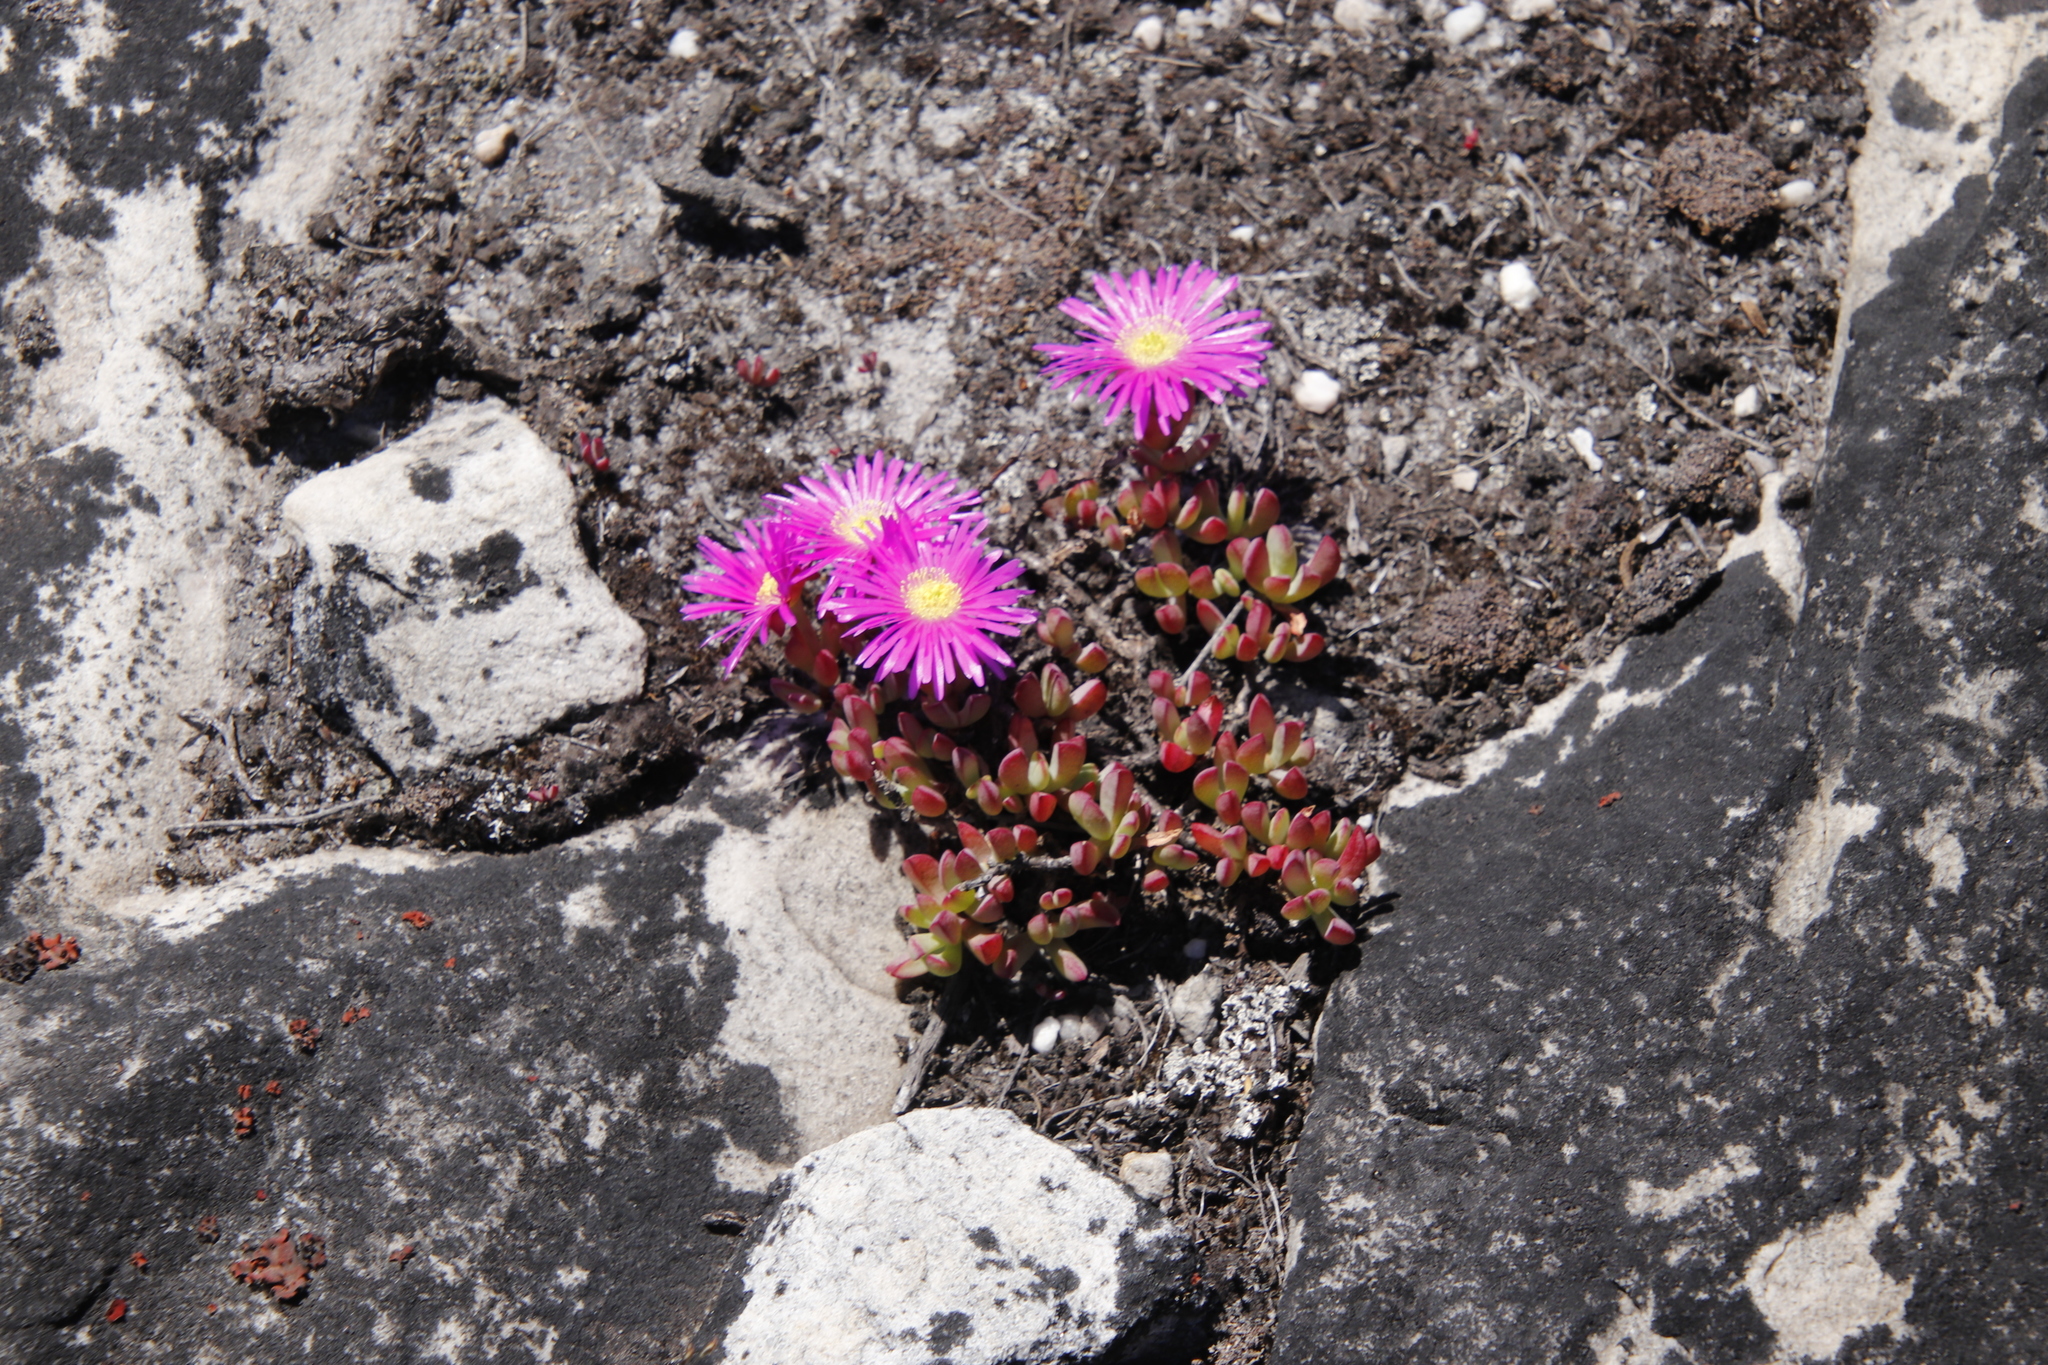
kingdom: Plantae
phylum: Tracheophyta
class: Magnoliopsida
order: Caryophyllales
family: Aizoaceae
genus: Oscularia
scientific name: Oscularia falciformis
